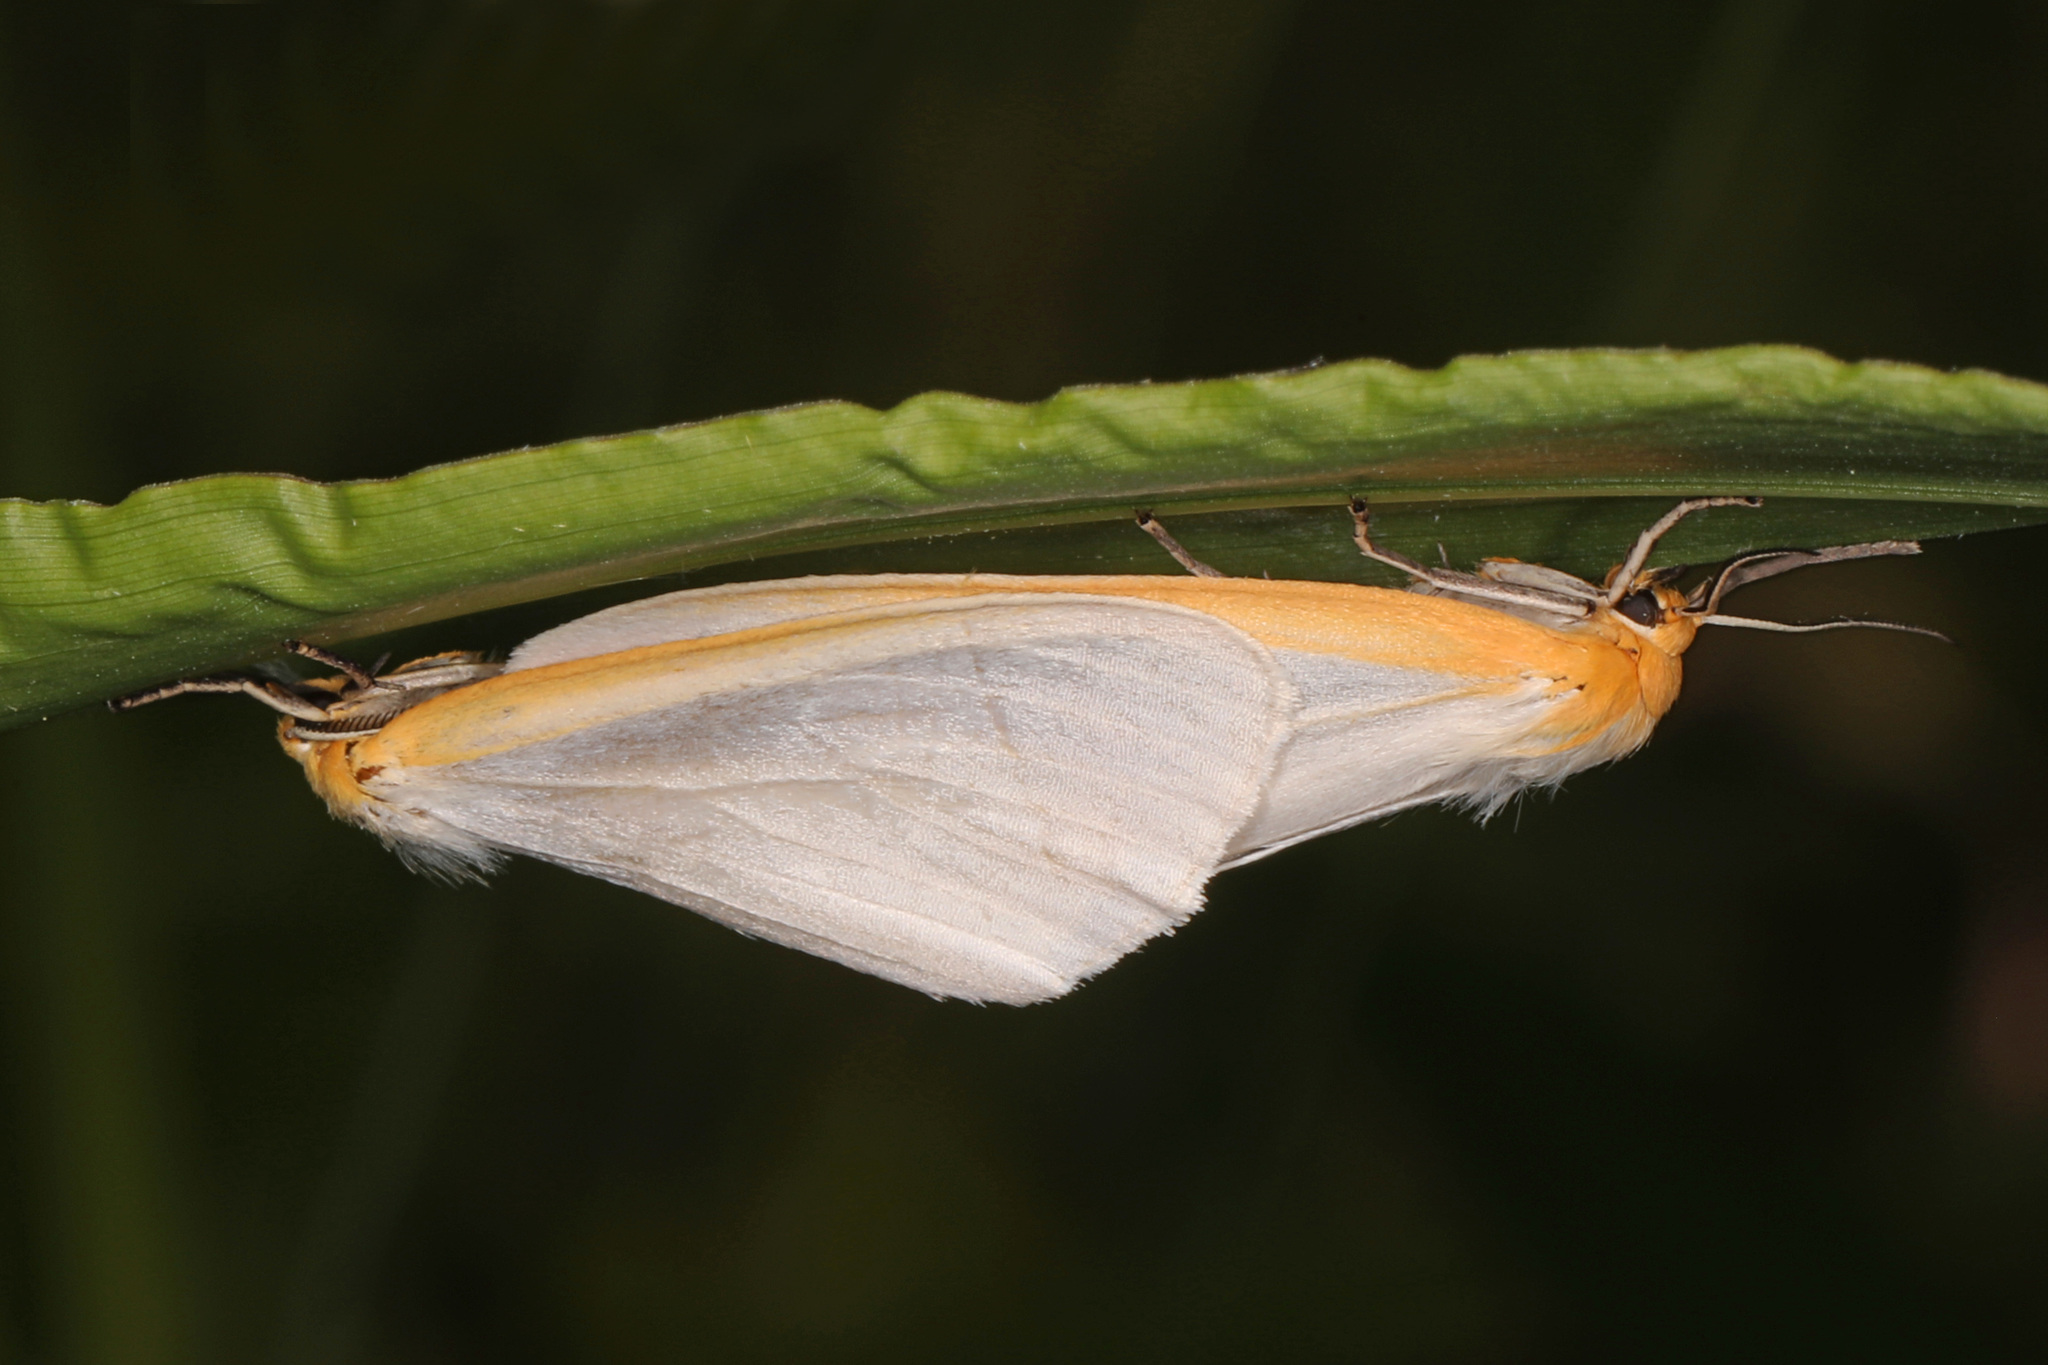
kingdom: Animalia
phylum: Arthropoda
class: Insecta
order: Lepidoptera
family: Erebidae
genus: Cycnia
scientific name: Cycnia tenera
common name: Delicate cycnia moth
